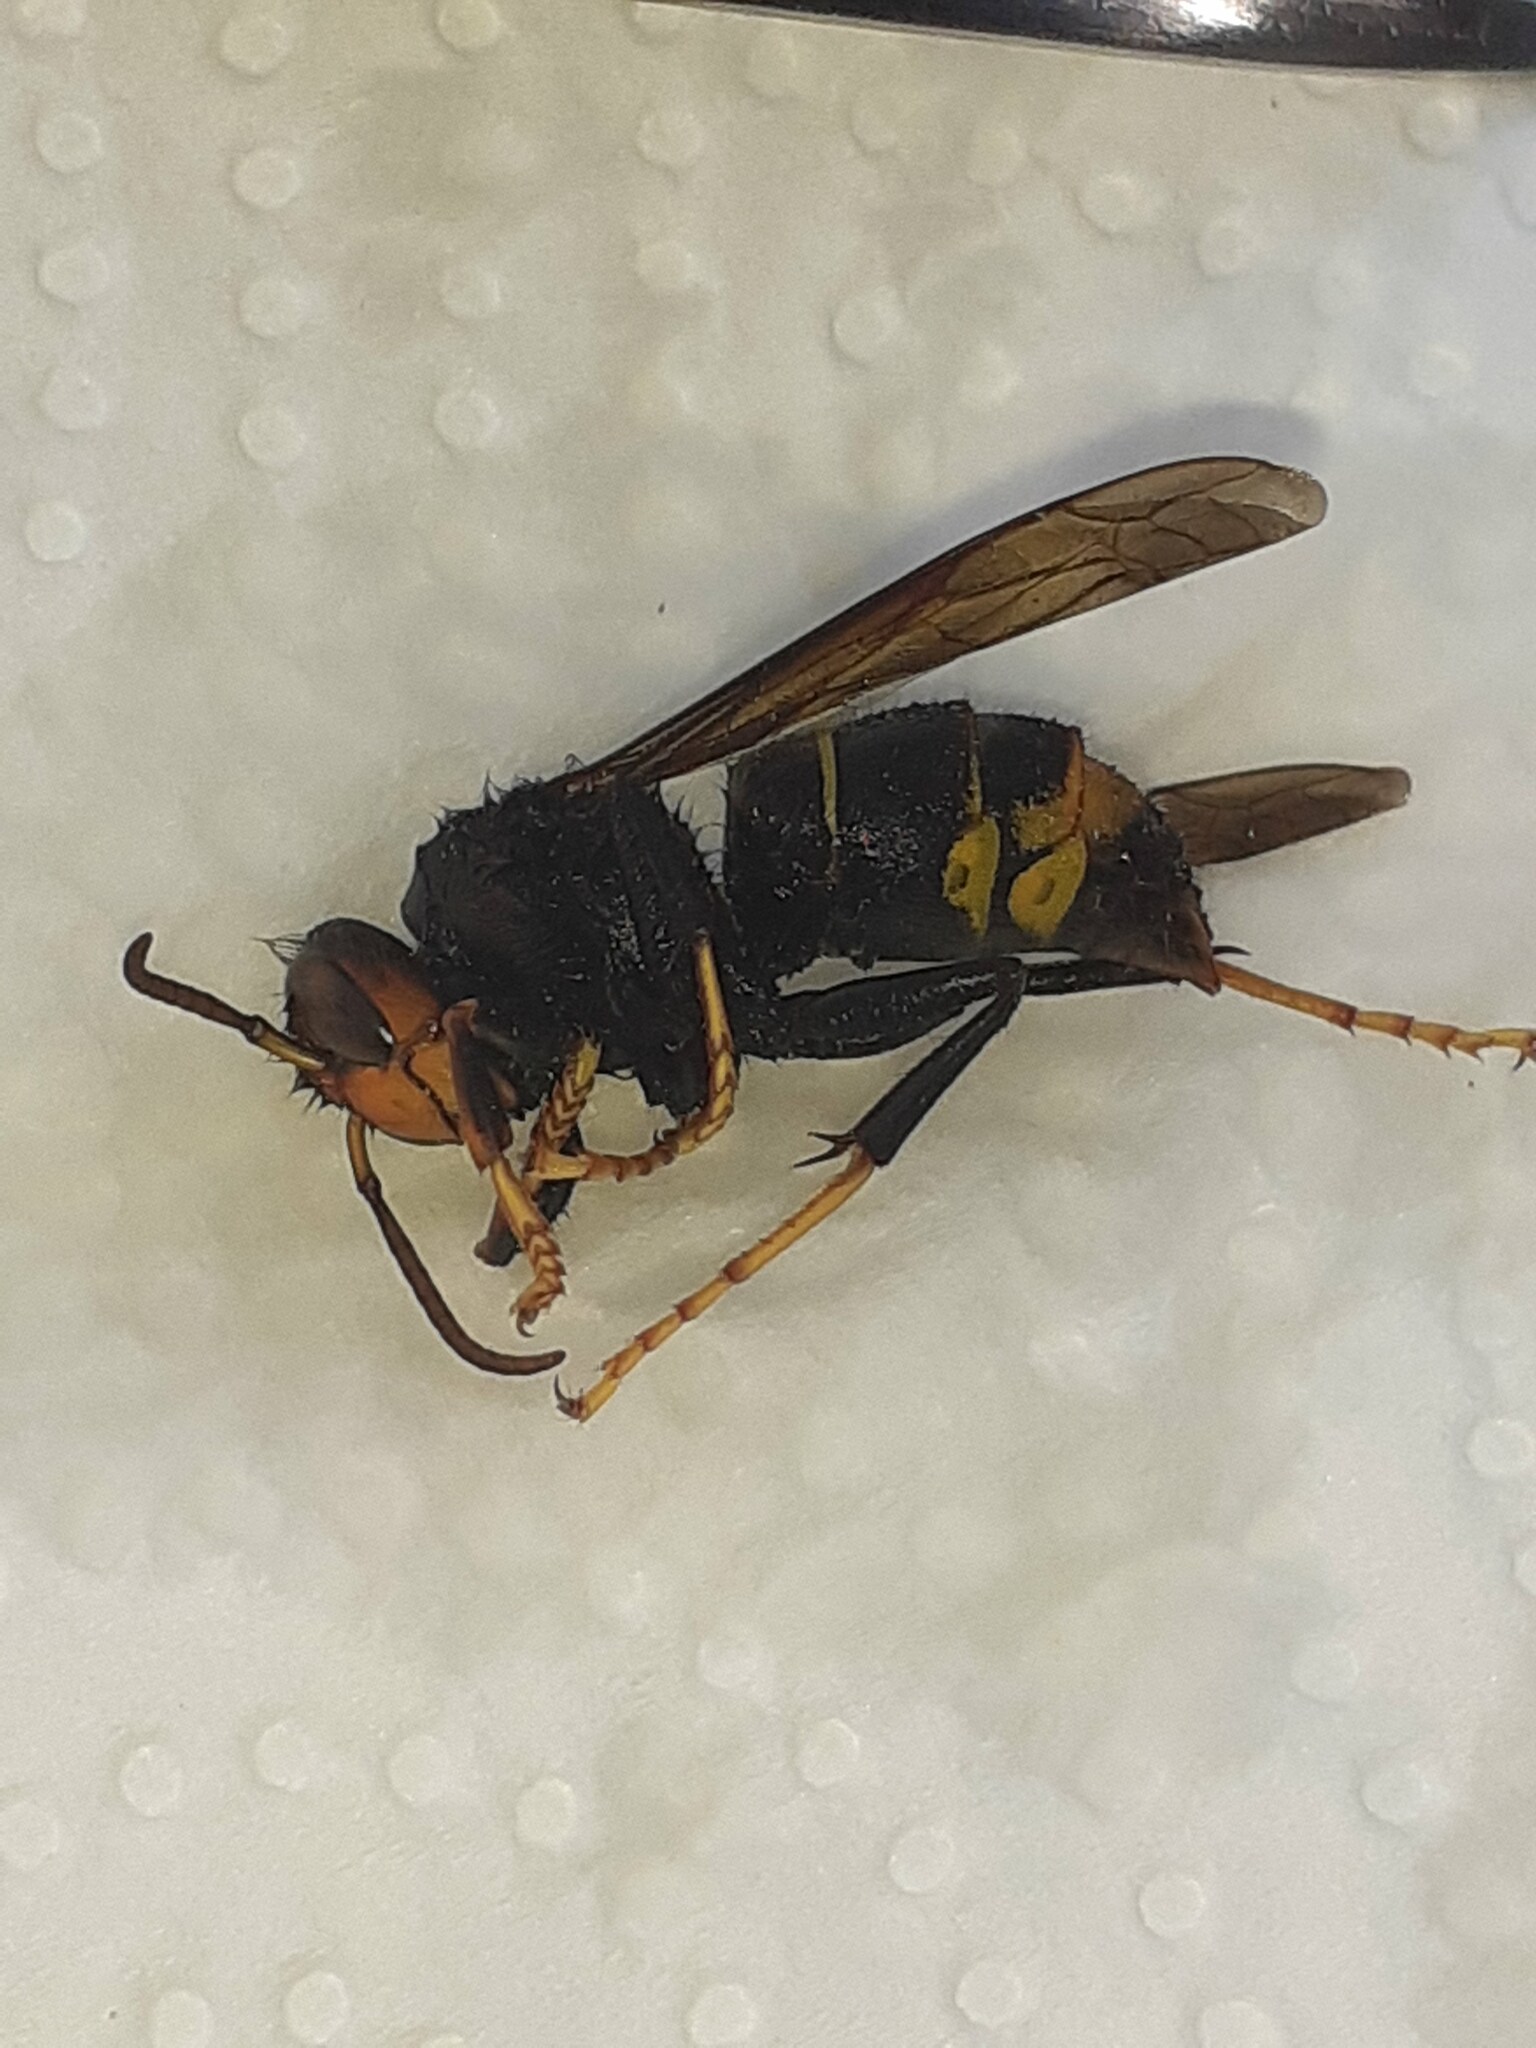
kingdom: Animalia
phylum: Arthropoda
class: Insecta
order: Hymenoptera
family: Vespidae
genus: Vespa
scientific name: Vespa velutina
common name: Asian hornet
